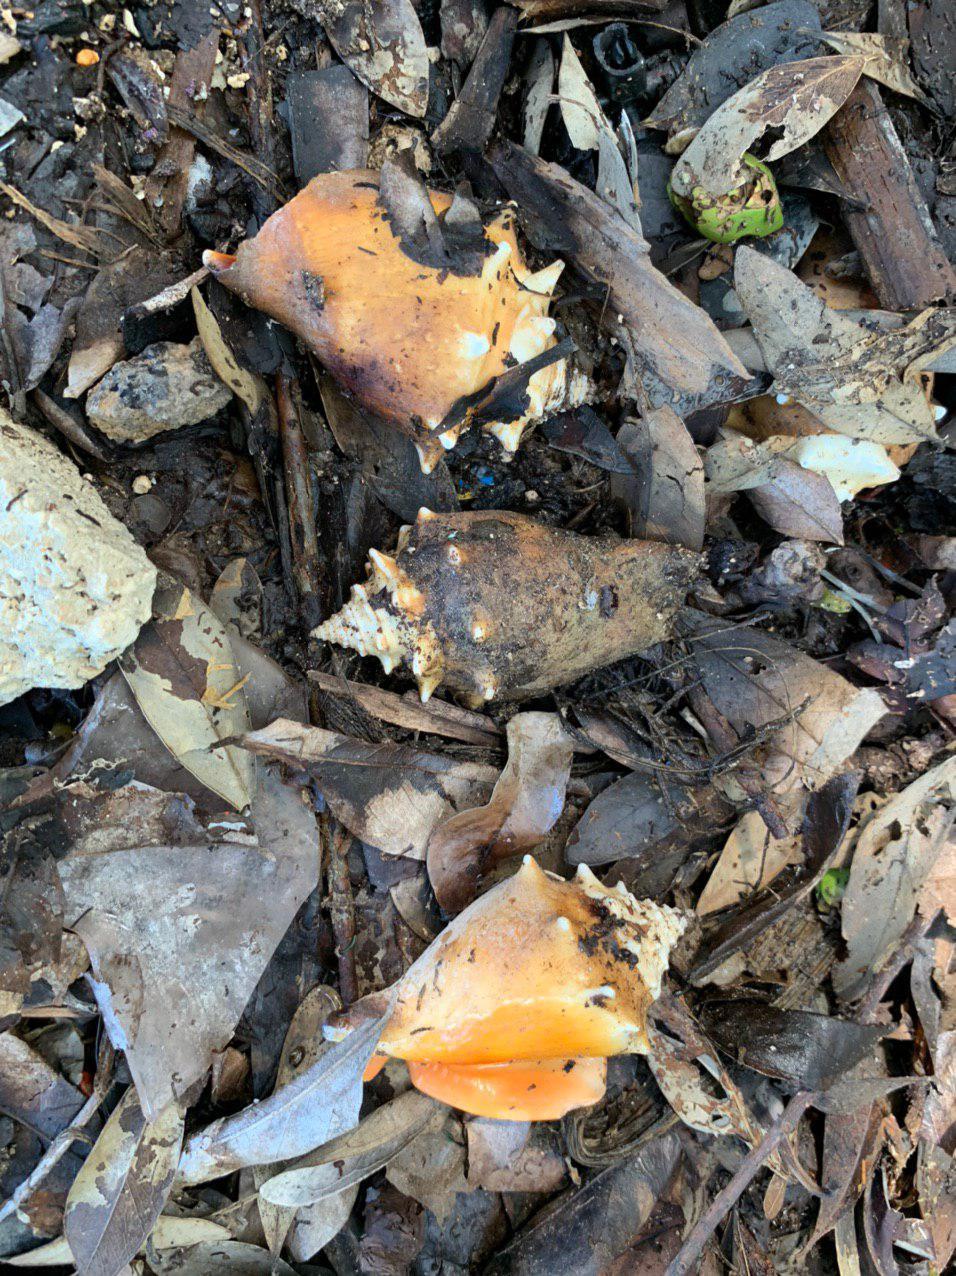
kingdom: Animalia
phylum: Mollusca
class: Gastropoda
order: Littorinimorpha
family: Strombidae
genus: Strombus
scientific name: Strombus pugilis
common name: West indian fighting conch
